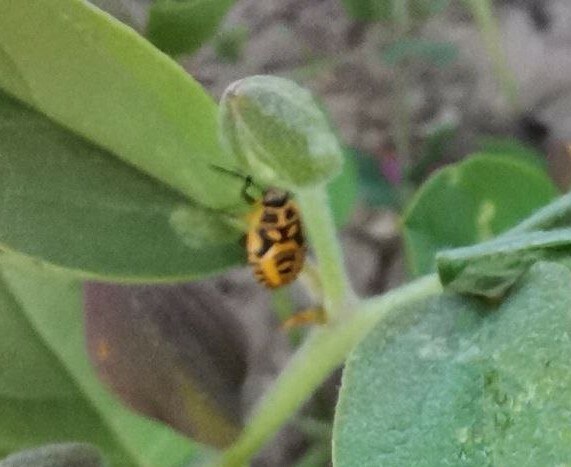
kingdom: Animalia
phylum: Arthropoda
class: Insecta
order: Hemiptera
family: Pentatomidae
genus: Eurydema
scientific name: Eurydema ventralis
